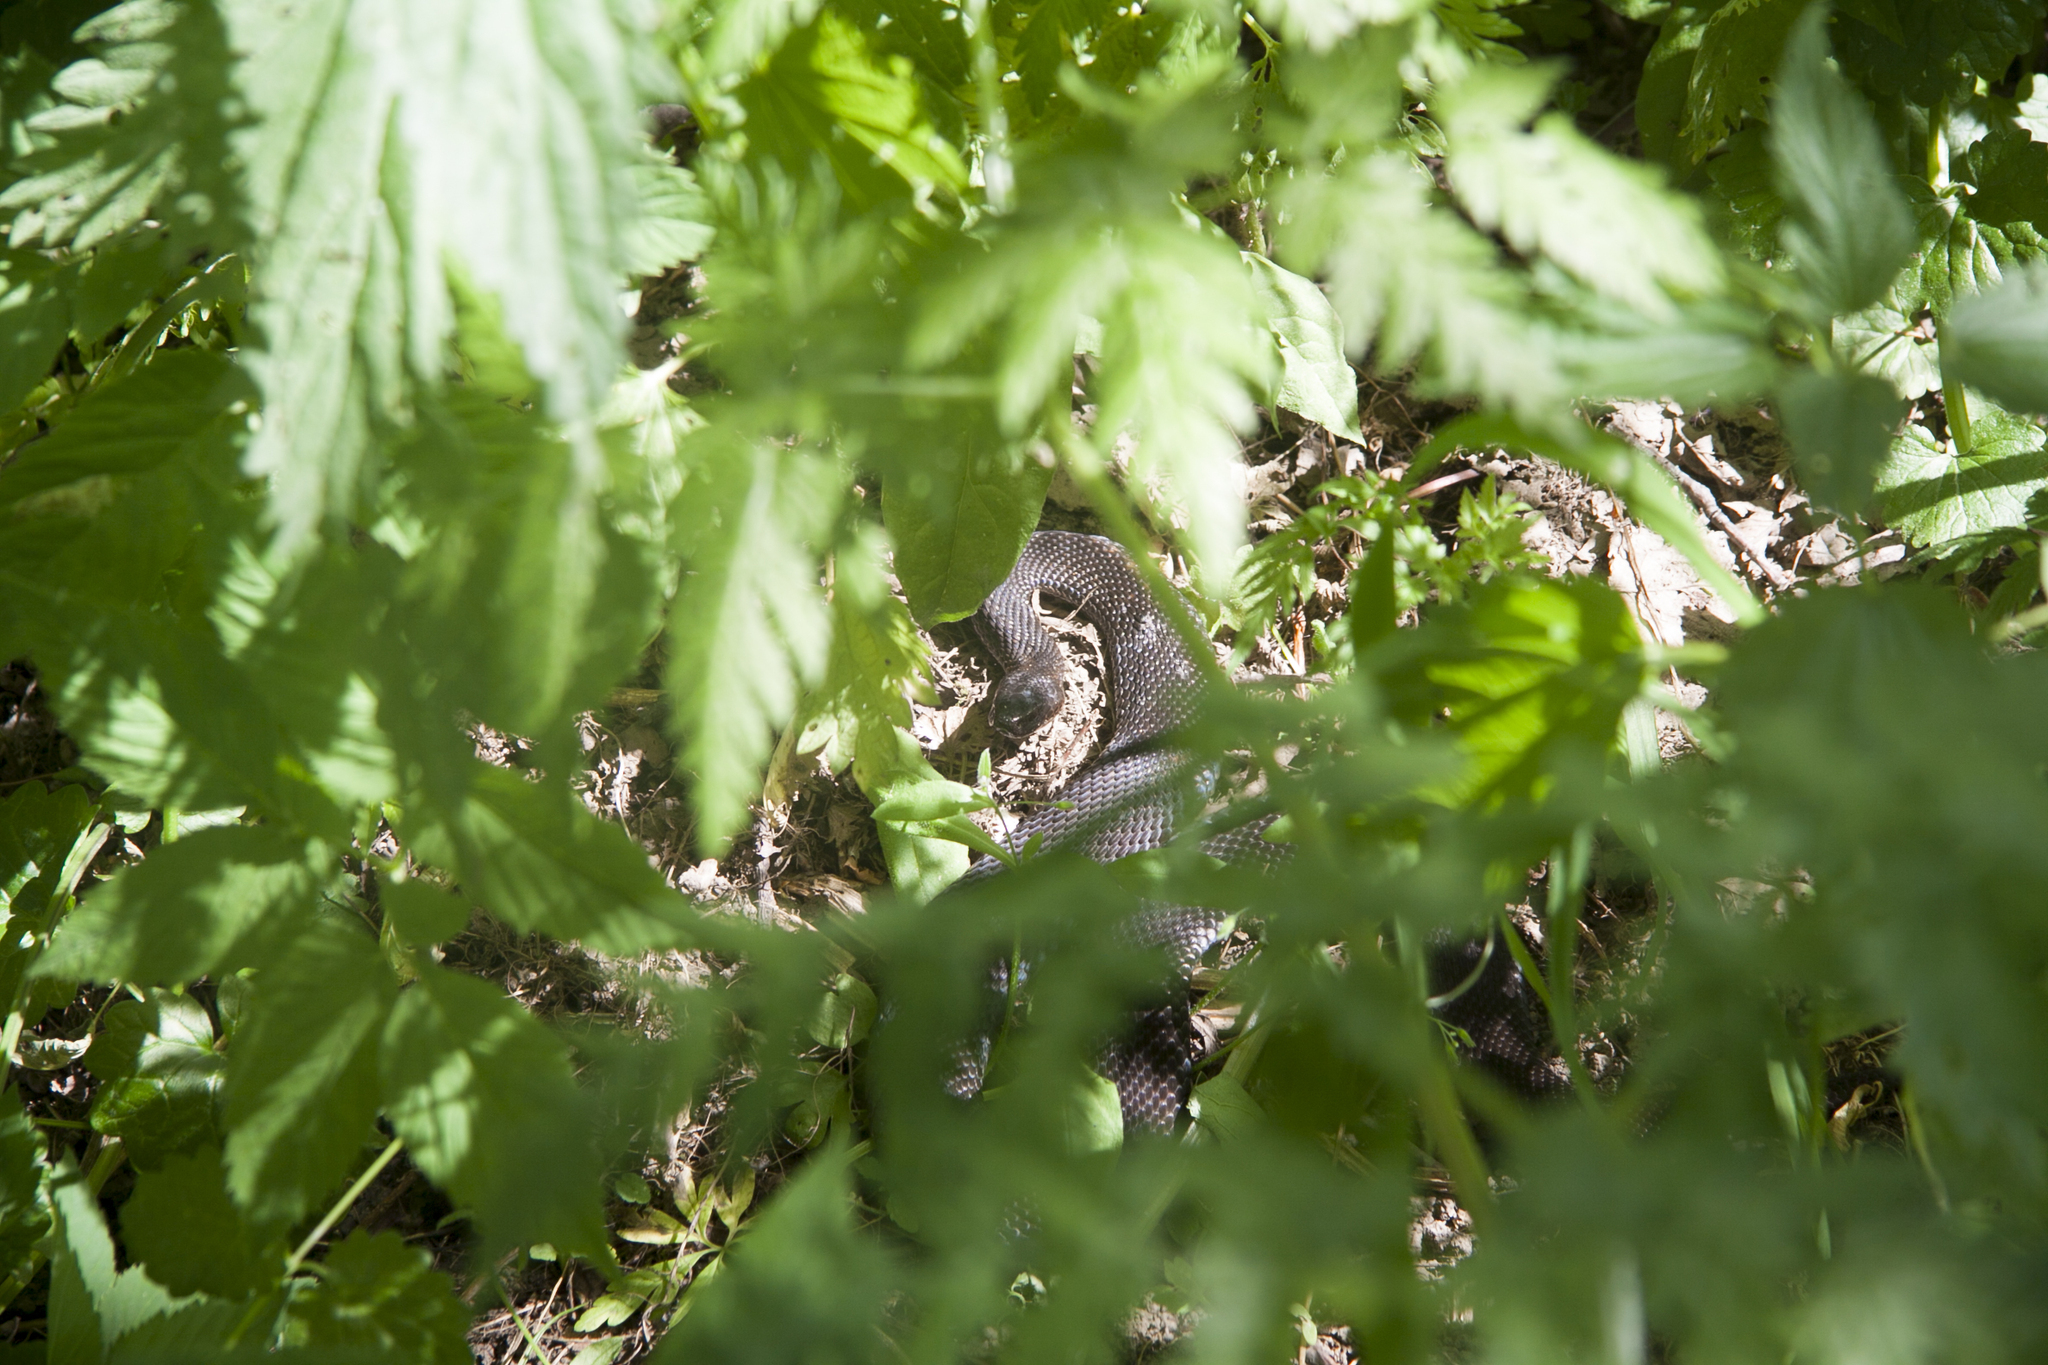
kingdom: Animalia
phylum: Chordata
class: Squamata
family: Viperidae
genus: Vipera
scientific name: Vipera berus
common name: Adder
